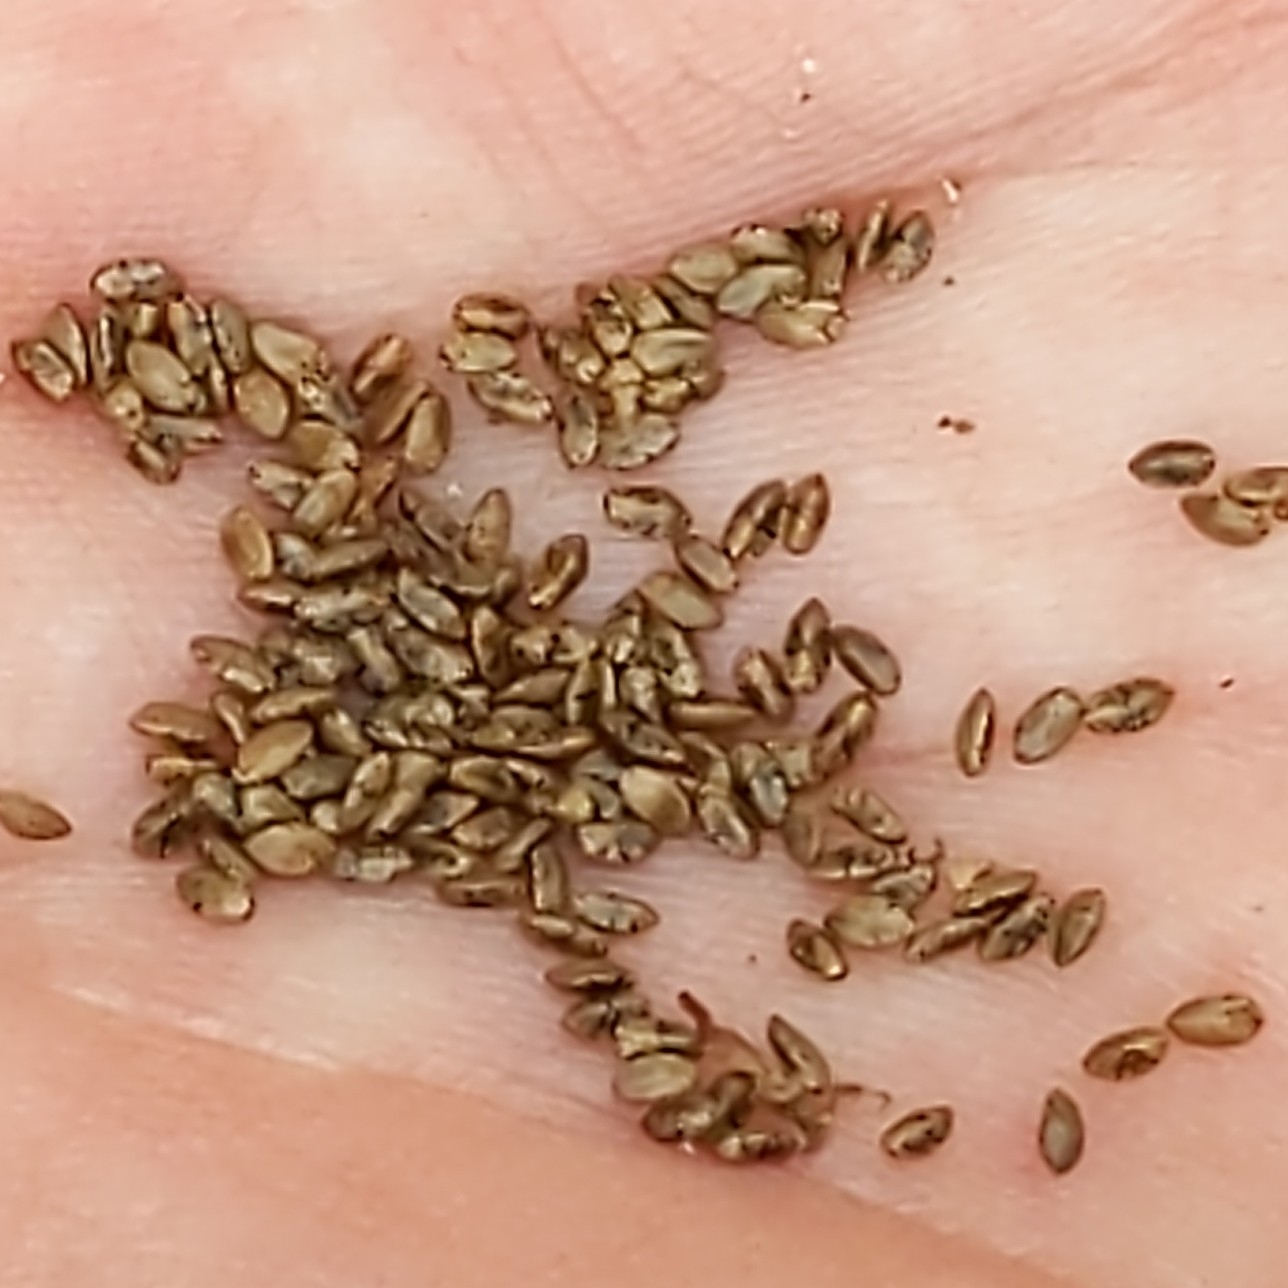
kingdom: Plantae
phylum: Tracheophyta
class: Magnoliopsida
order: Lamiales
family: Lamiaceae
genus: Salvia
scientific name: Salvia columbariae
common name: Chia
